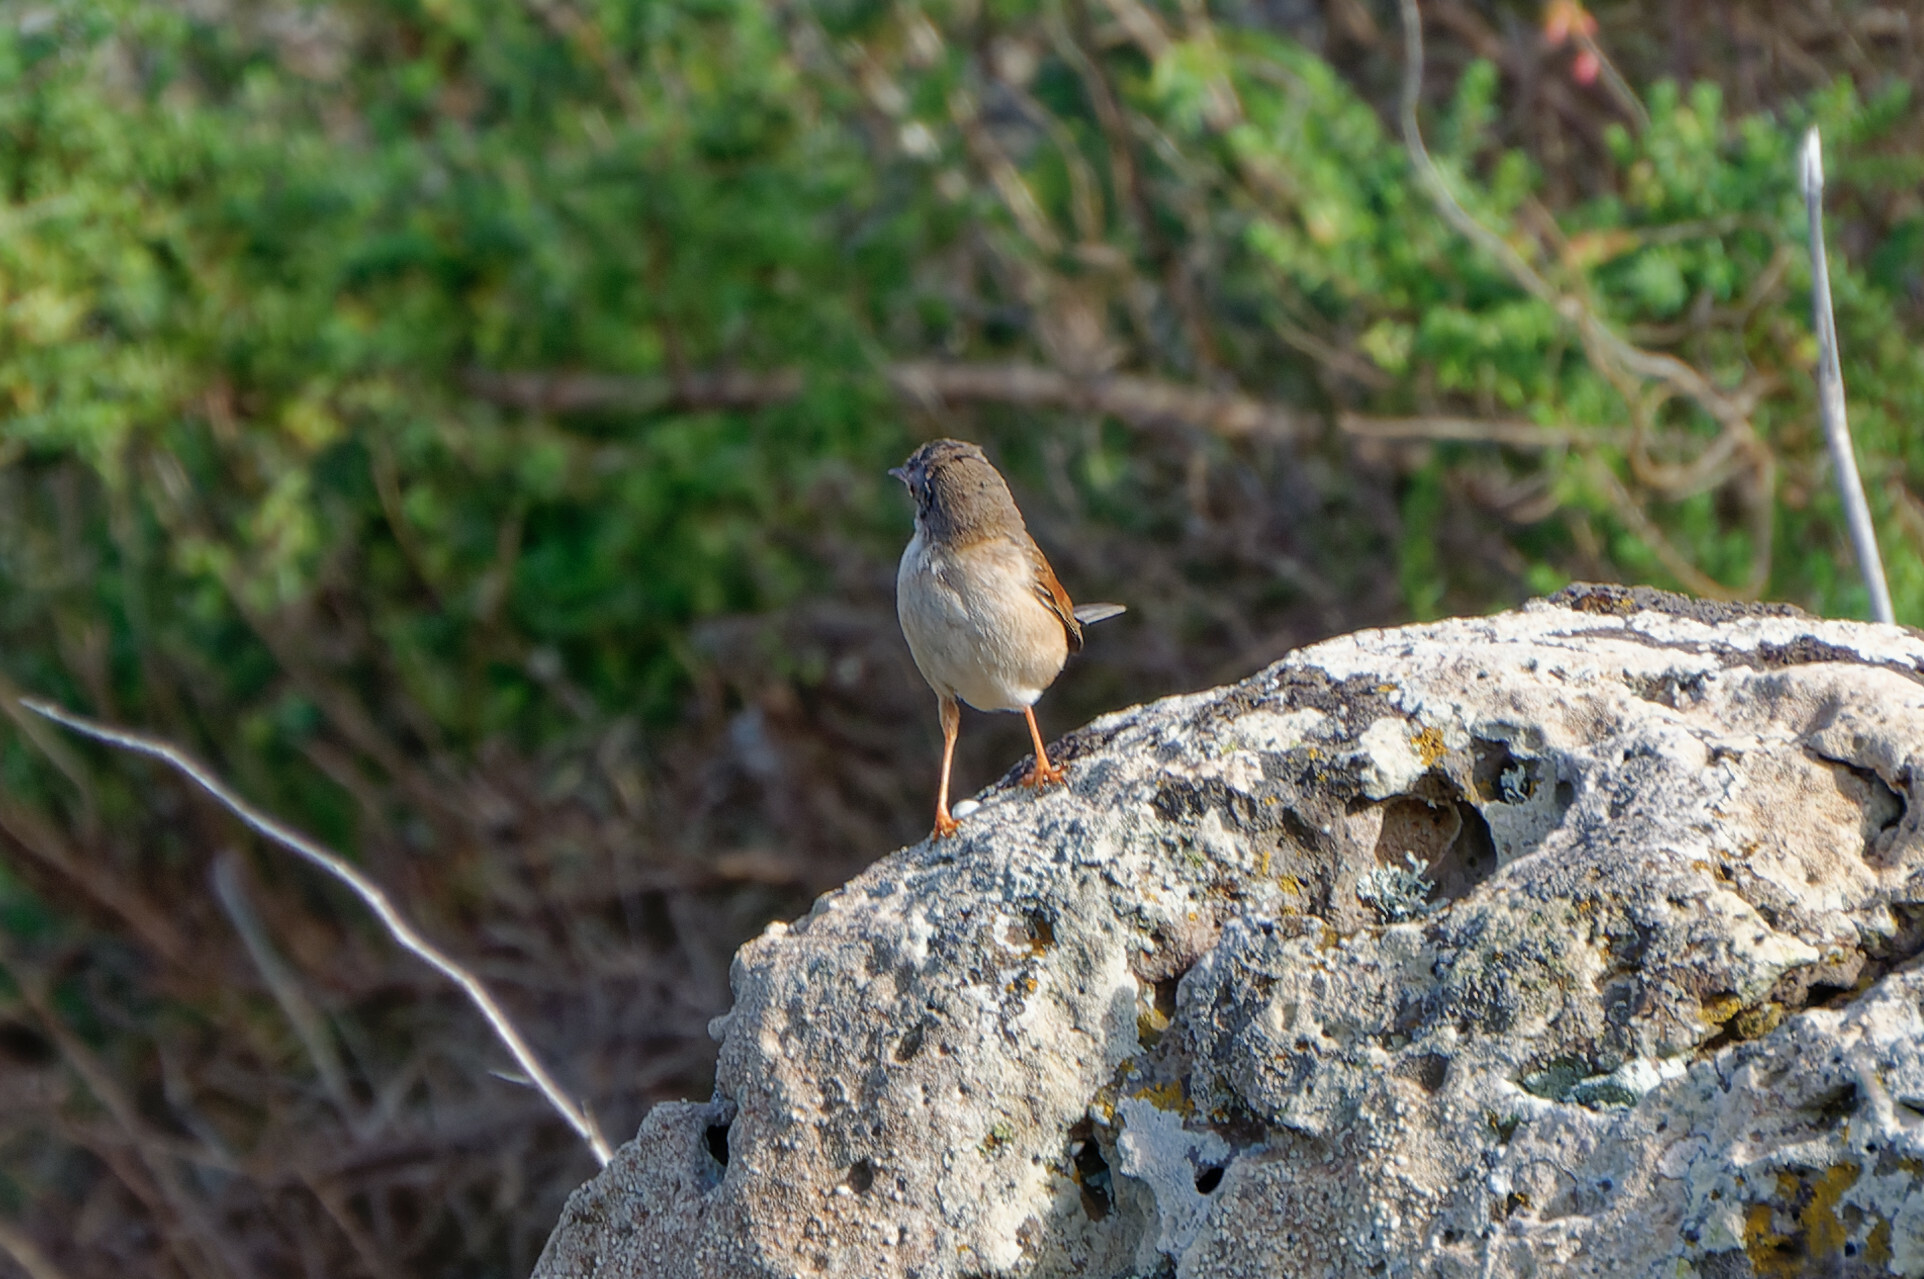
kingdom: Animalia
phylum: Chordata
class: Aves
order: Passeriformes
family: Sylviidae
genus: Sylvia
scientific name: Sylvia conspicillata
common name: Spectacled warbler
